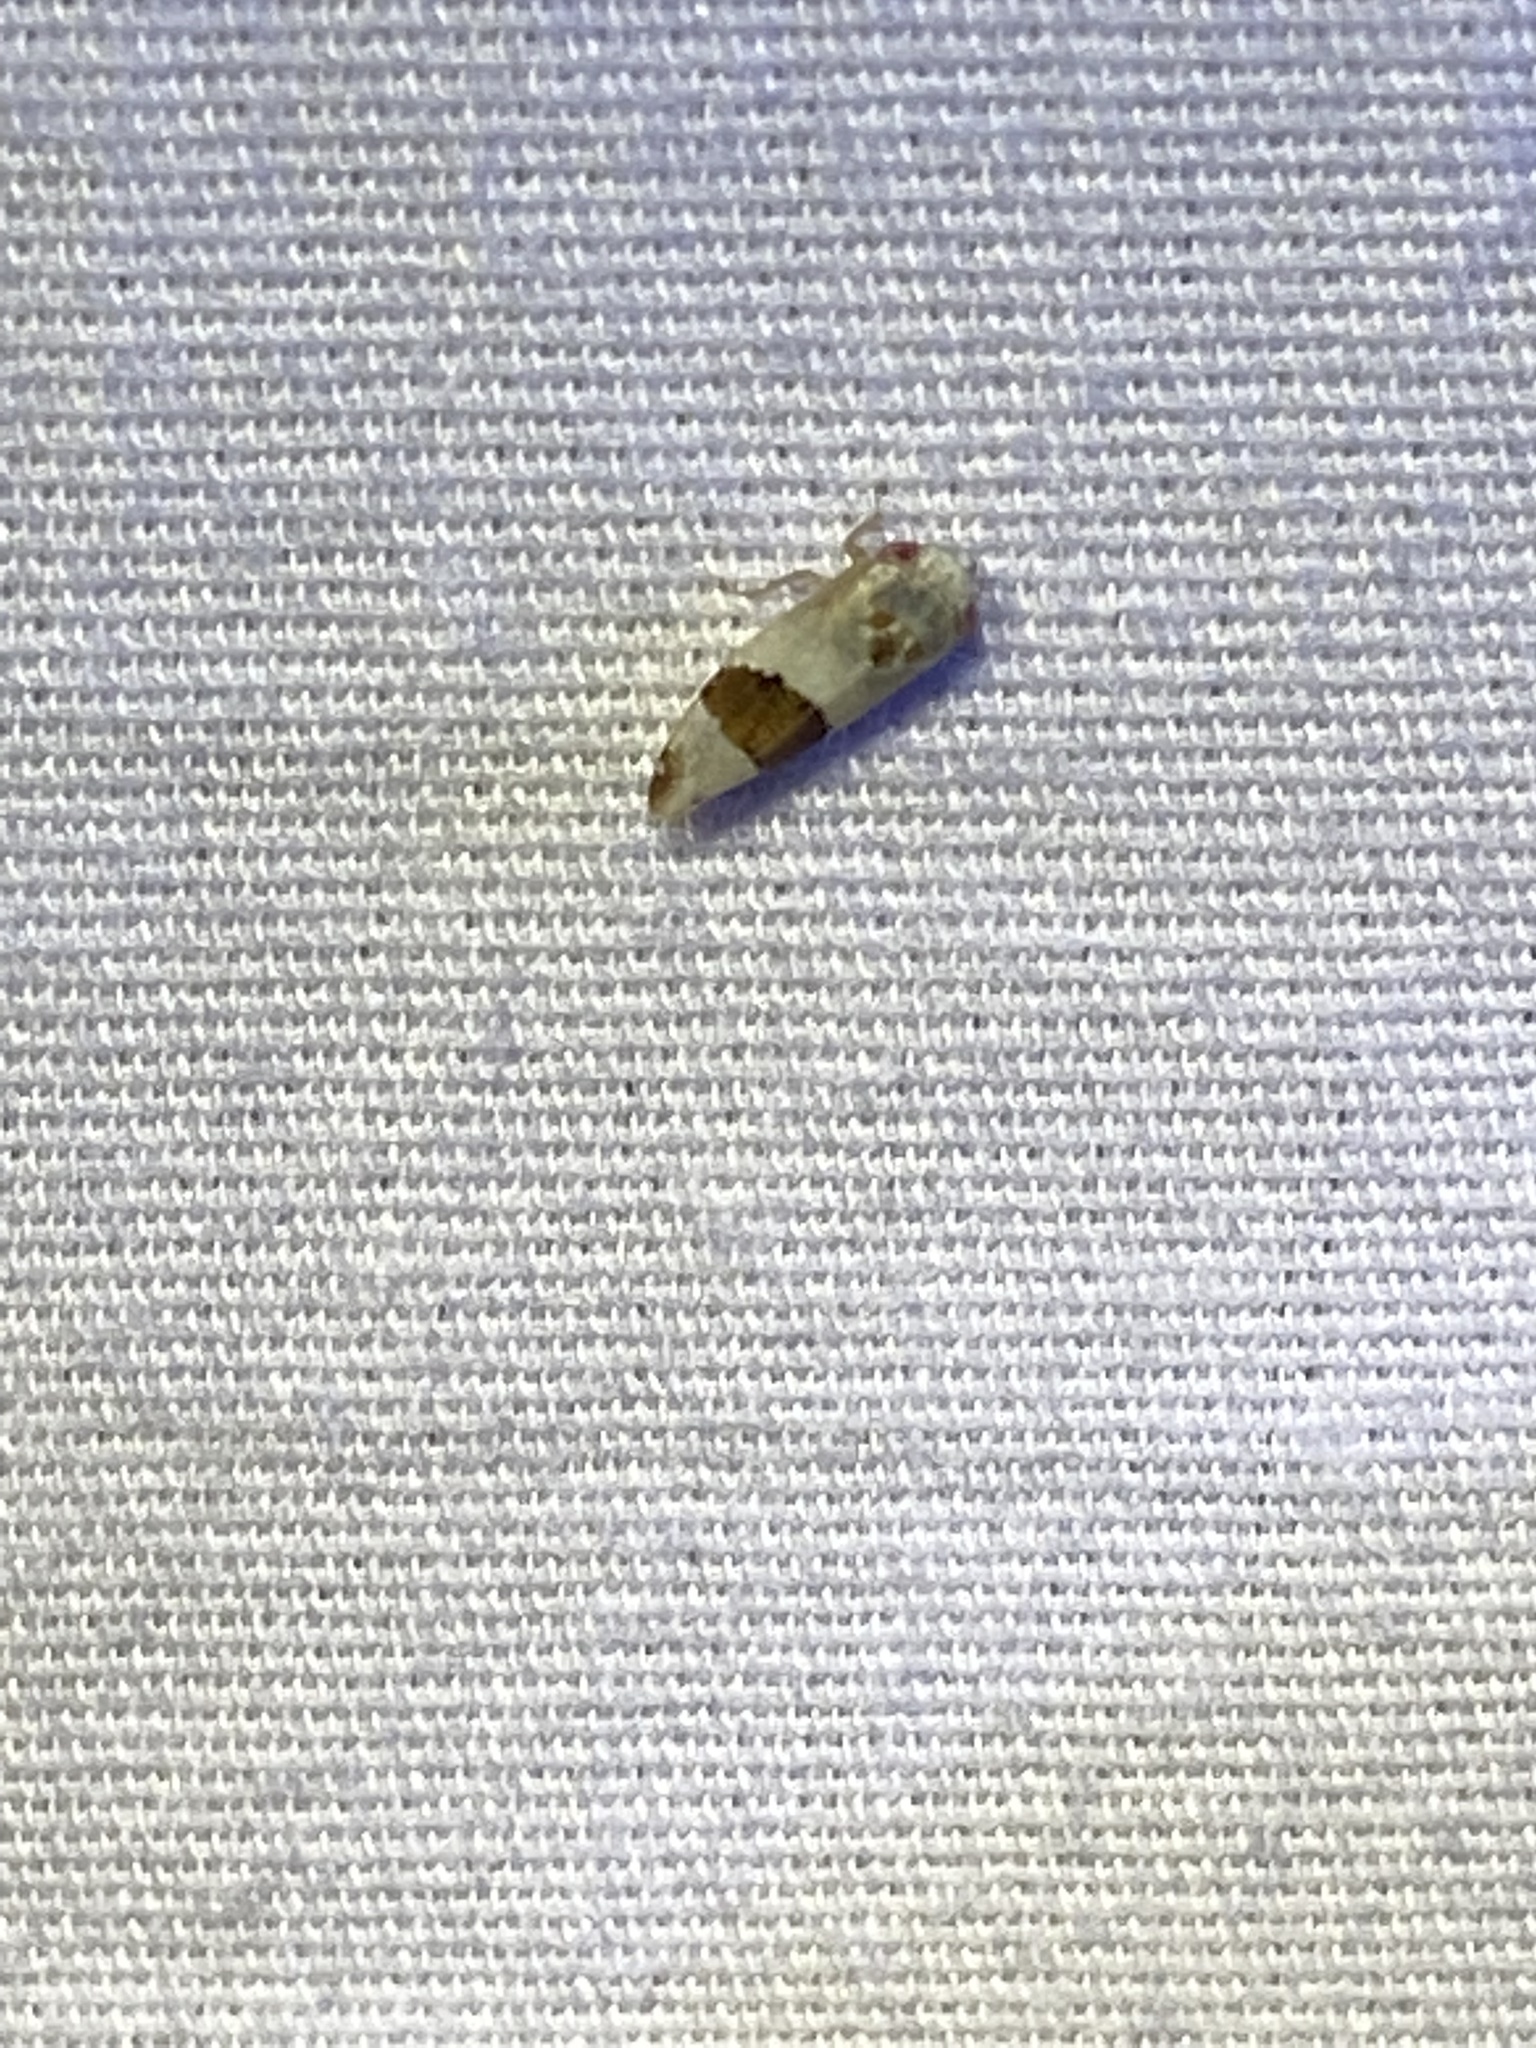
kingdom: Animalia
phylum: Arthropoda
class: Insecta
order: Hemiptera
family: Cicadellidae
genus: Norvellina
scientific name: Norvellina seminuda
